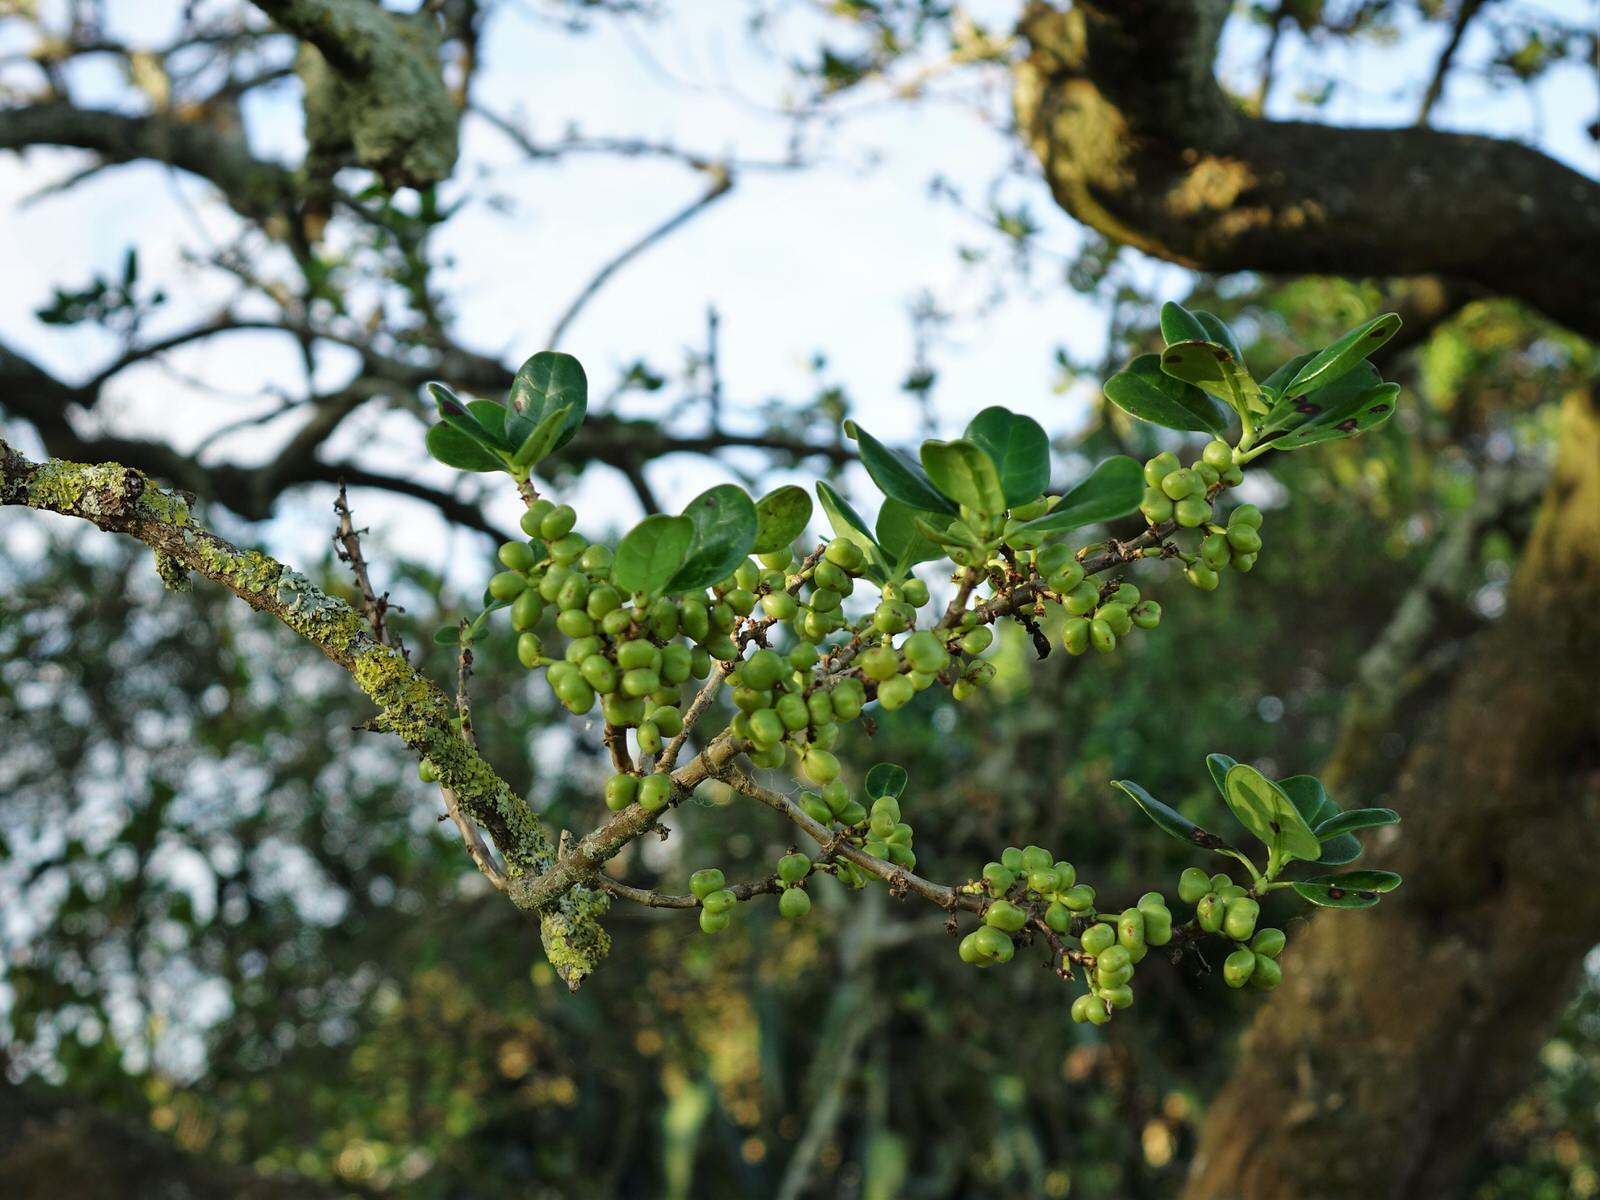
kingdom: Plantae
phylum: Tracheophyta
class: Magnoliopsida
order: Gentianales
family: Rubiaceae
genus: Coprosma
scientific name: Coprosma repens
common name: Tree bedstraw
